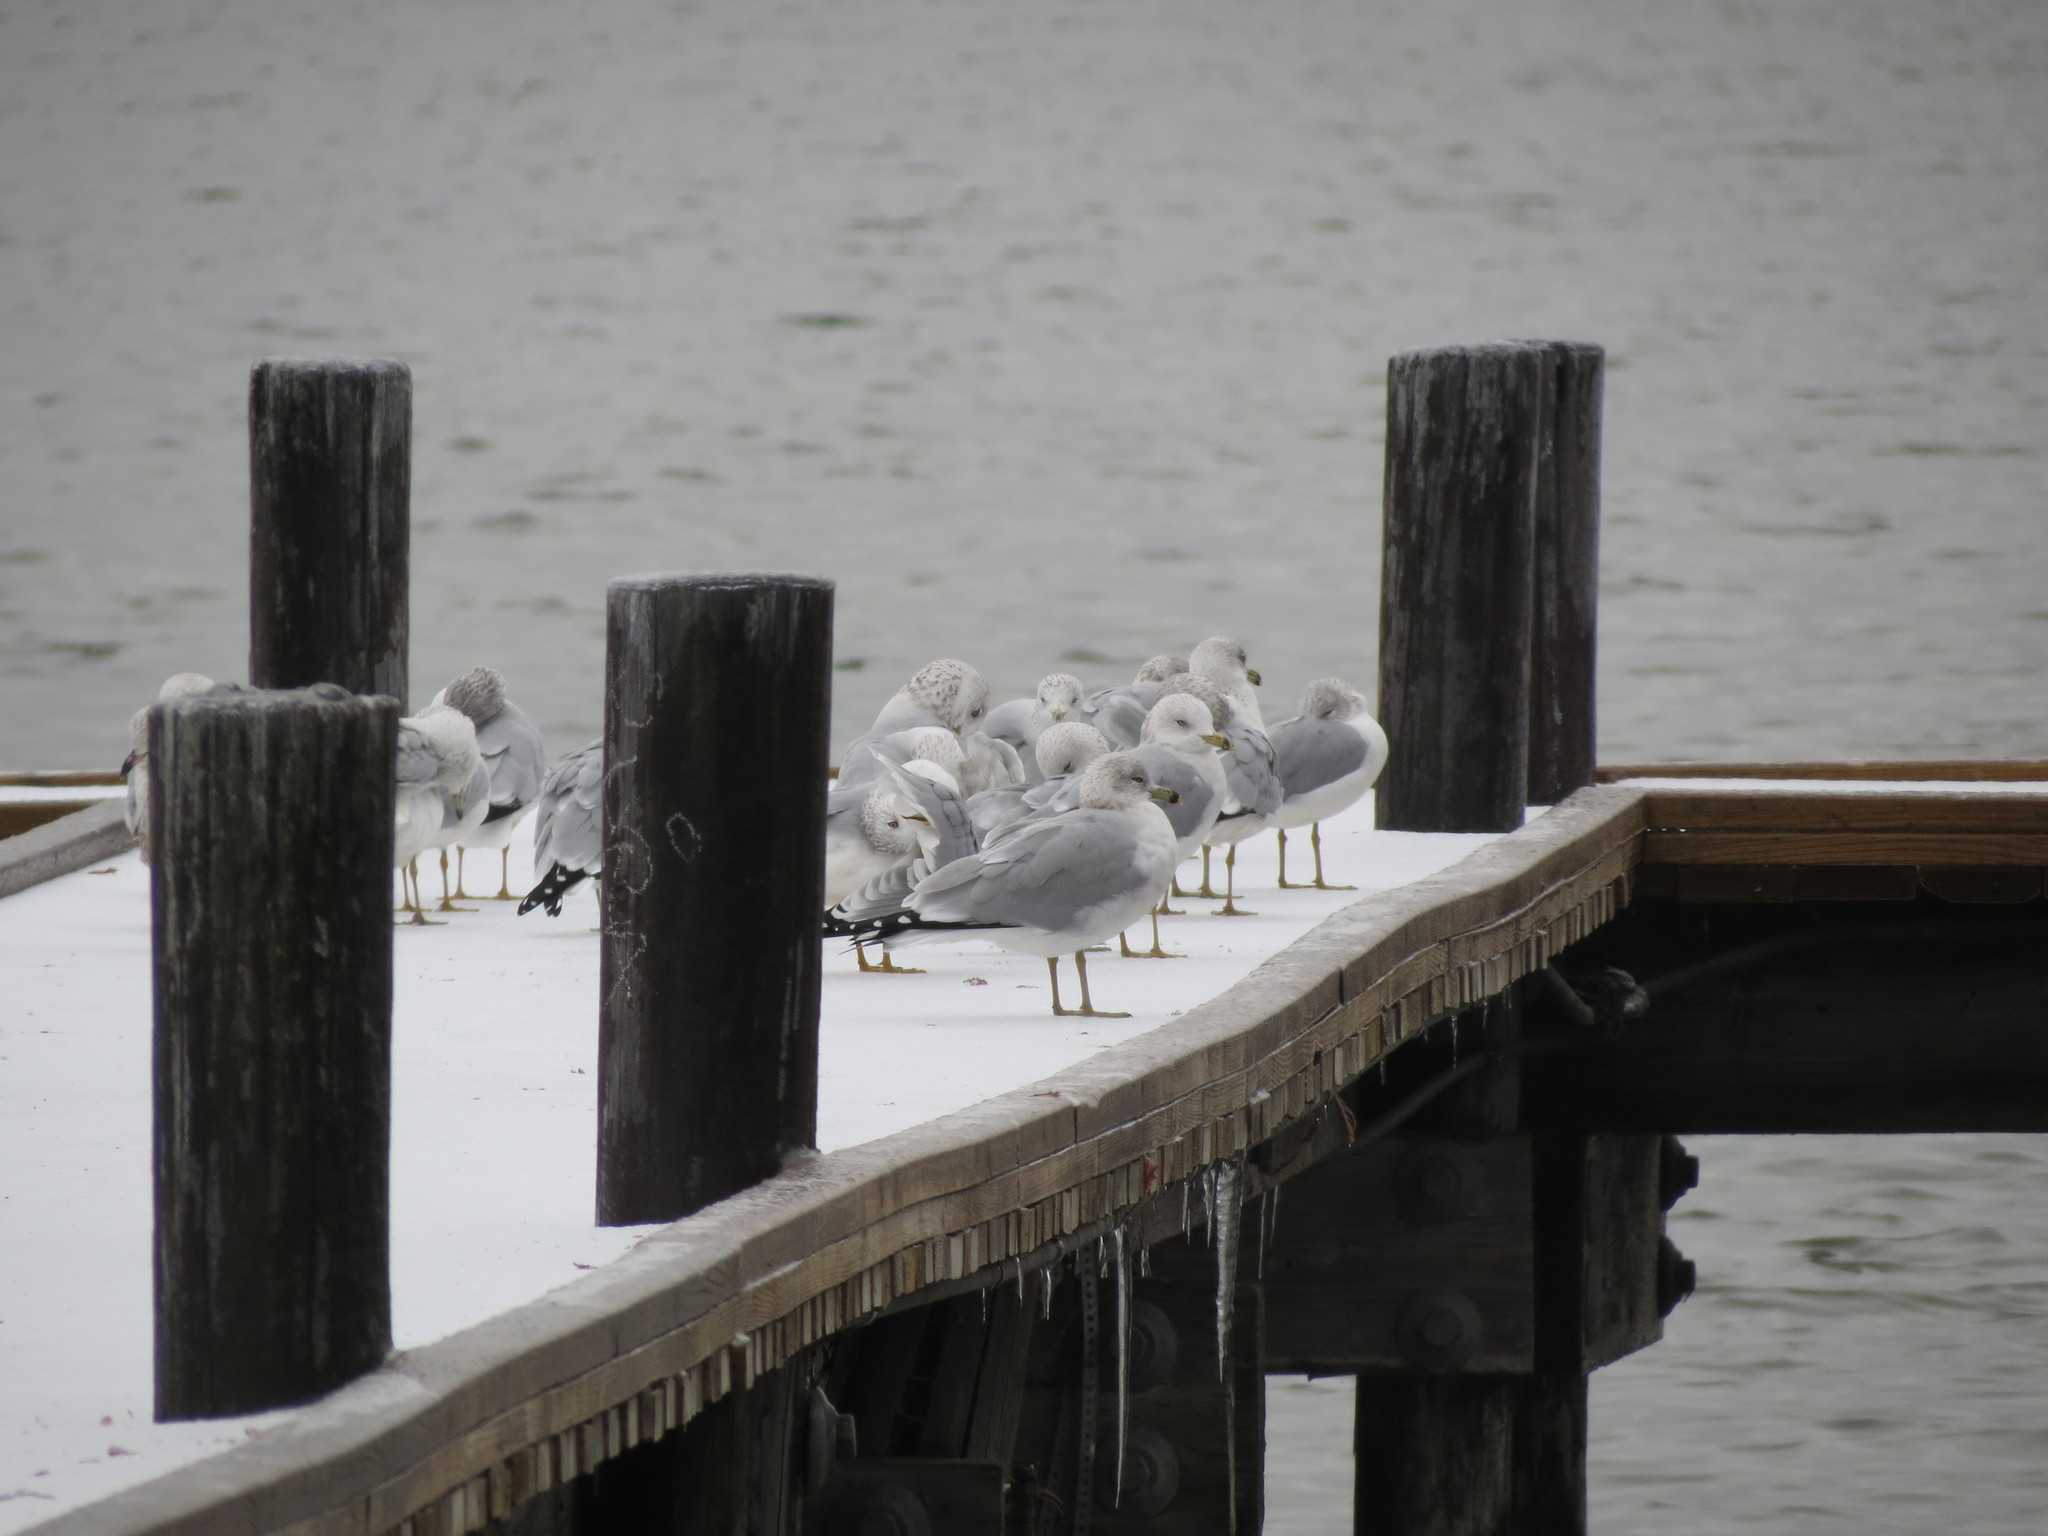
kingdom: Animalia
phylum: Chordata
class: Aves
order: Charadriiformes
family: Laridae
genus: Larus
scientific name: Larus delawarensis
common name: Ring-billed gull
